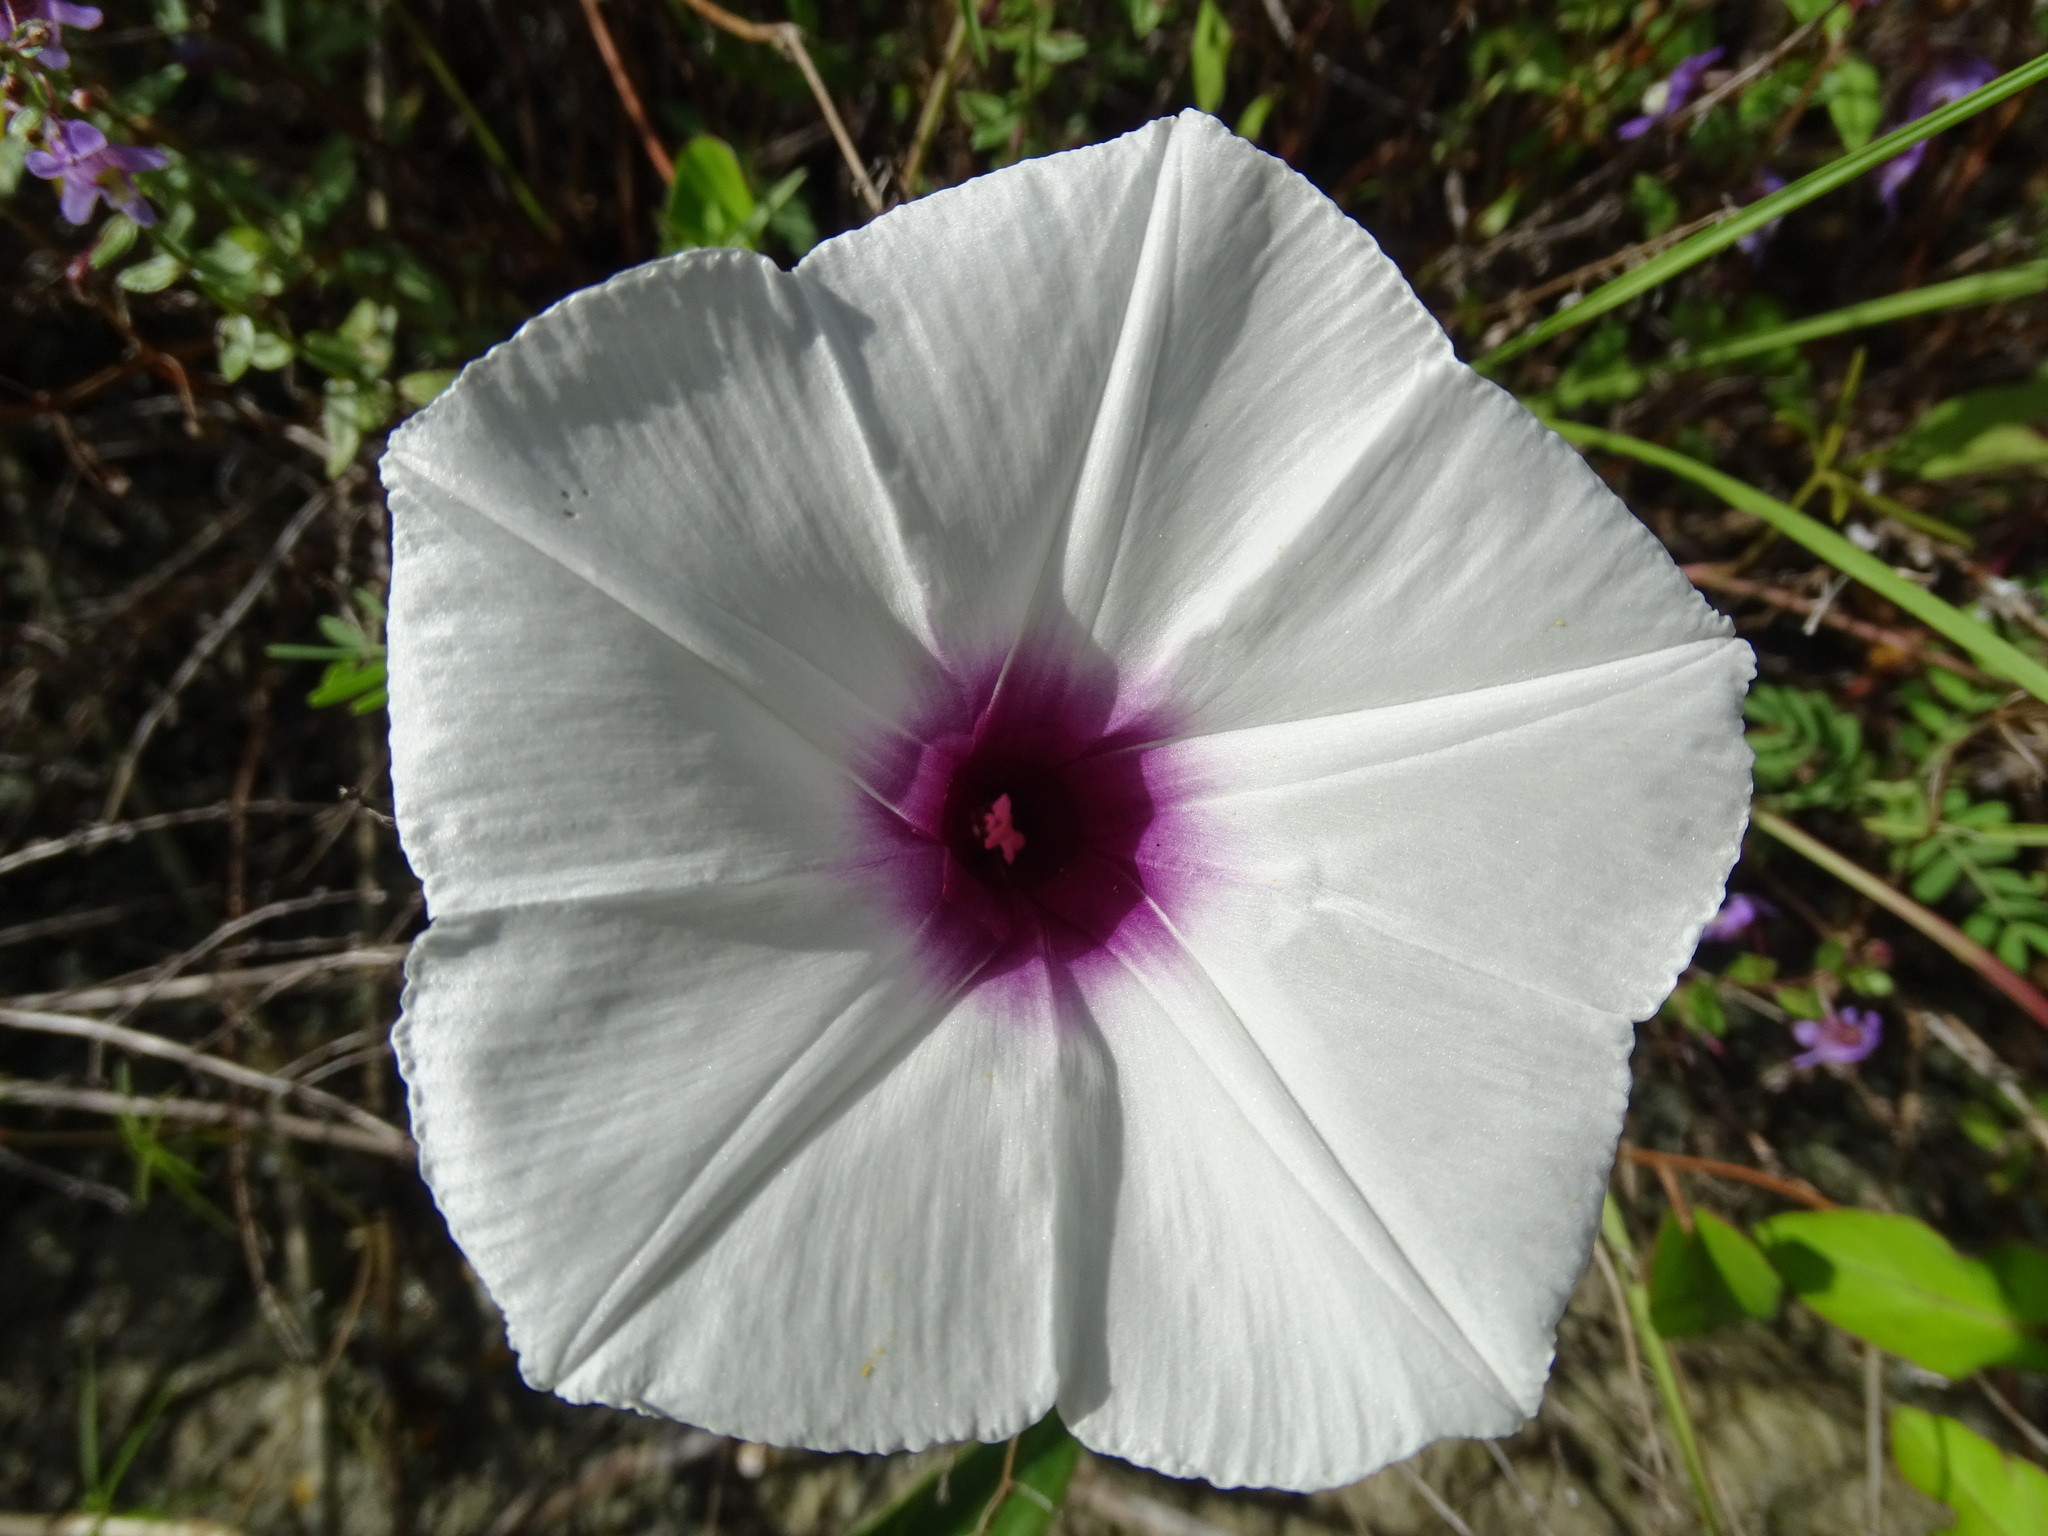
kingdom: Plantae
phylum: Tracheophyta
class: Magnoliopsida
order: Solanales
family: Convolvulaceae
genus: Ipomoea
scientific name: Ipomoea anisomeres
